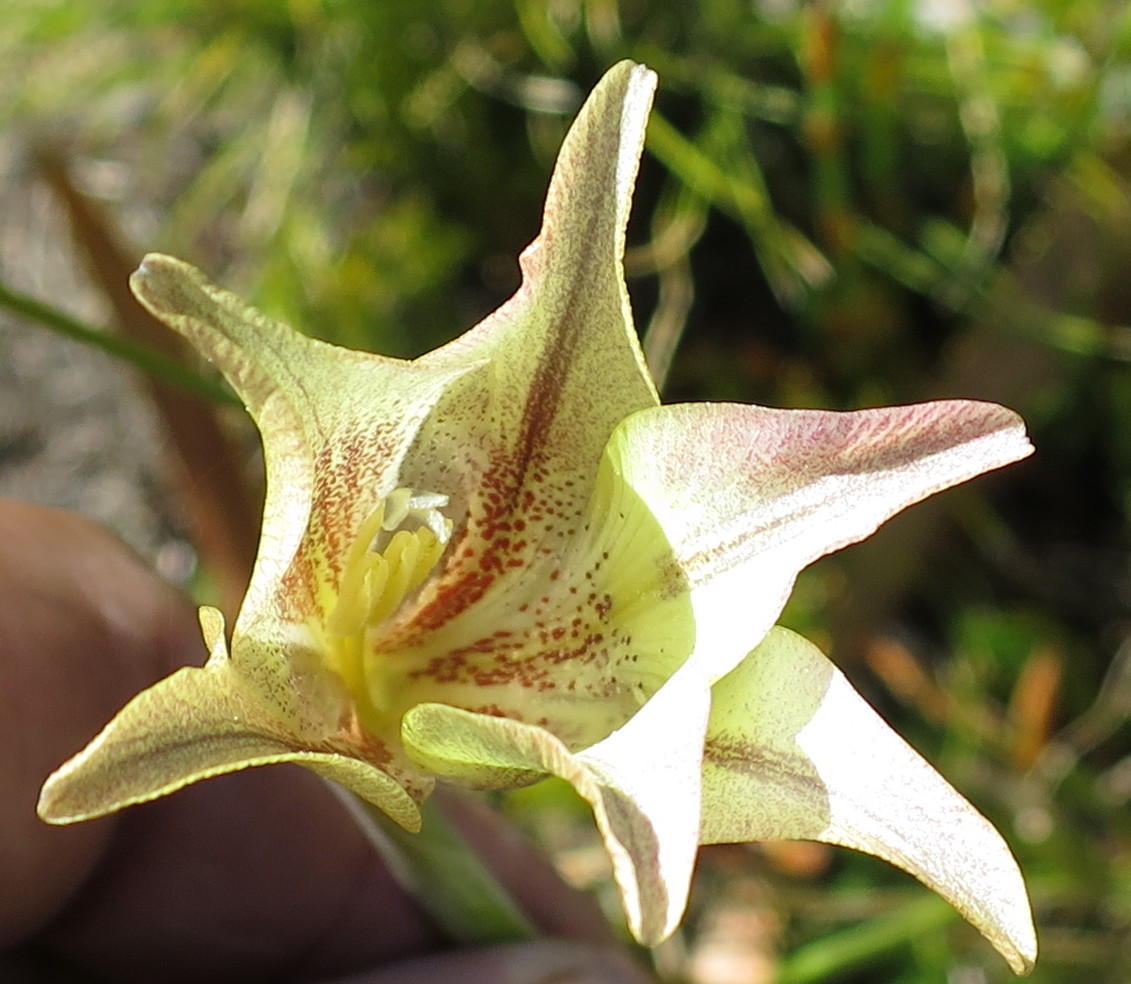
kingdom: Plantae
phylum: Tracheophyta
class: Liliopsida
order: Asparagales
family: Iridaceae
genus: Gladiolus
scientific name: Gladiolus longicollis
